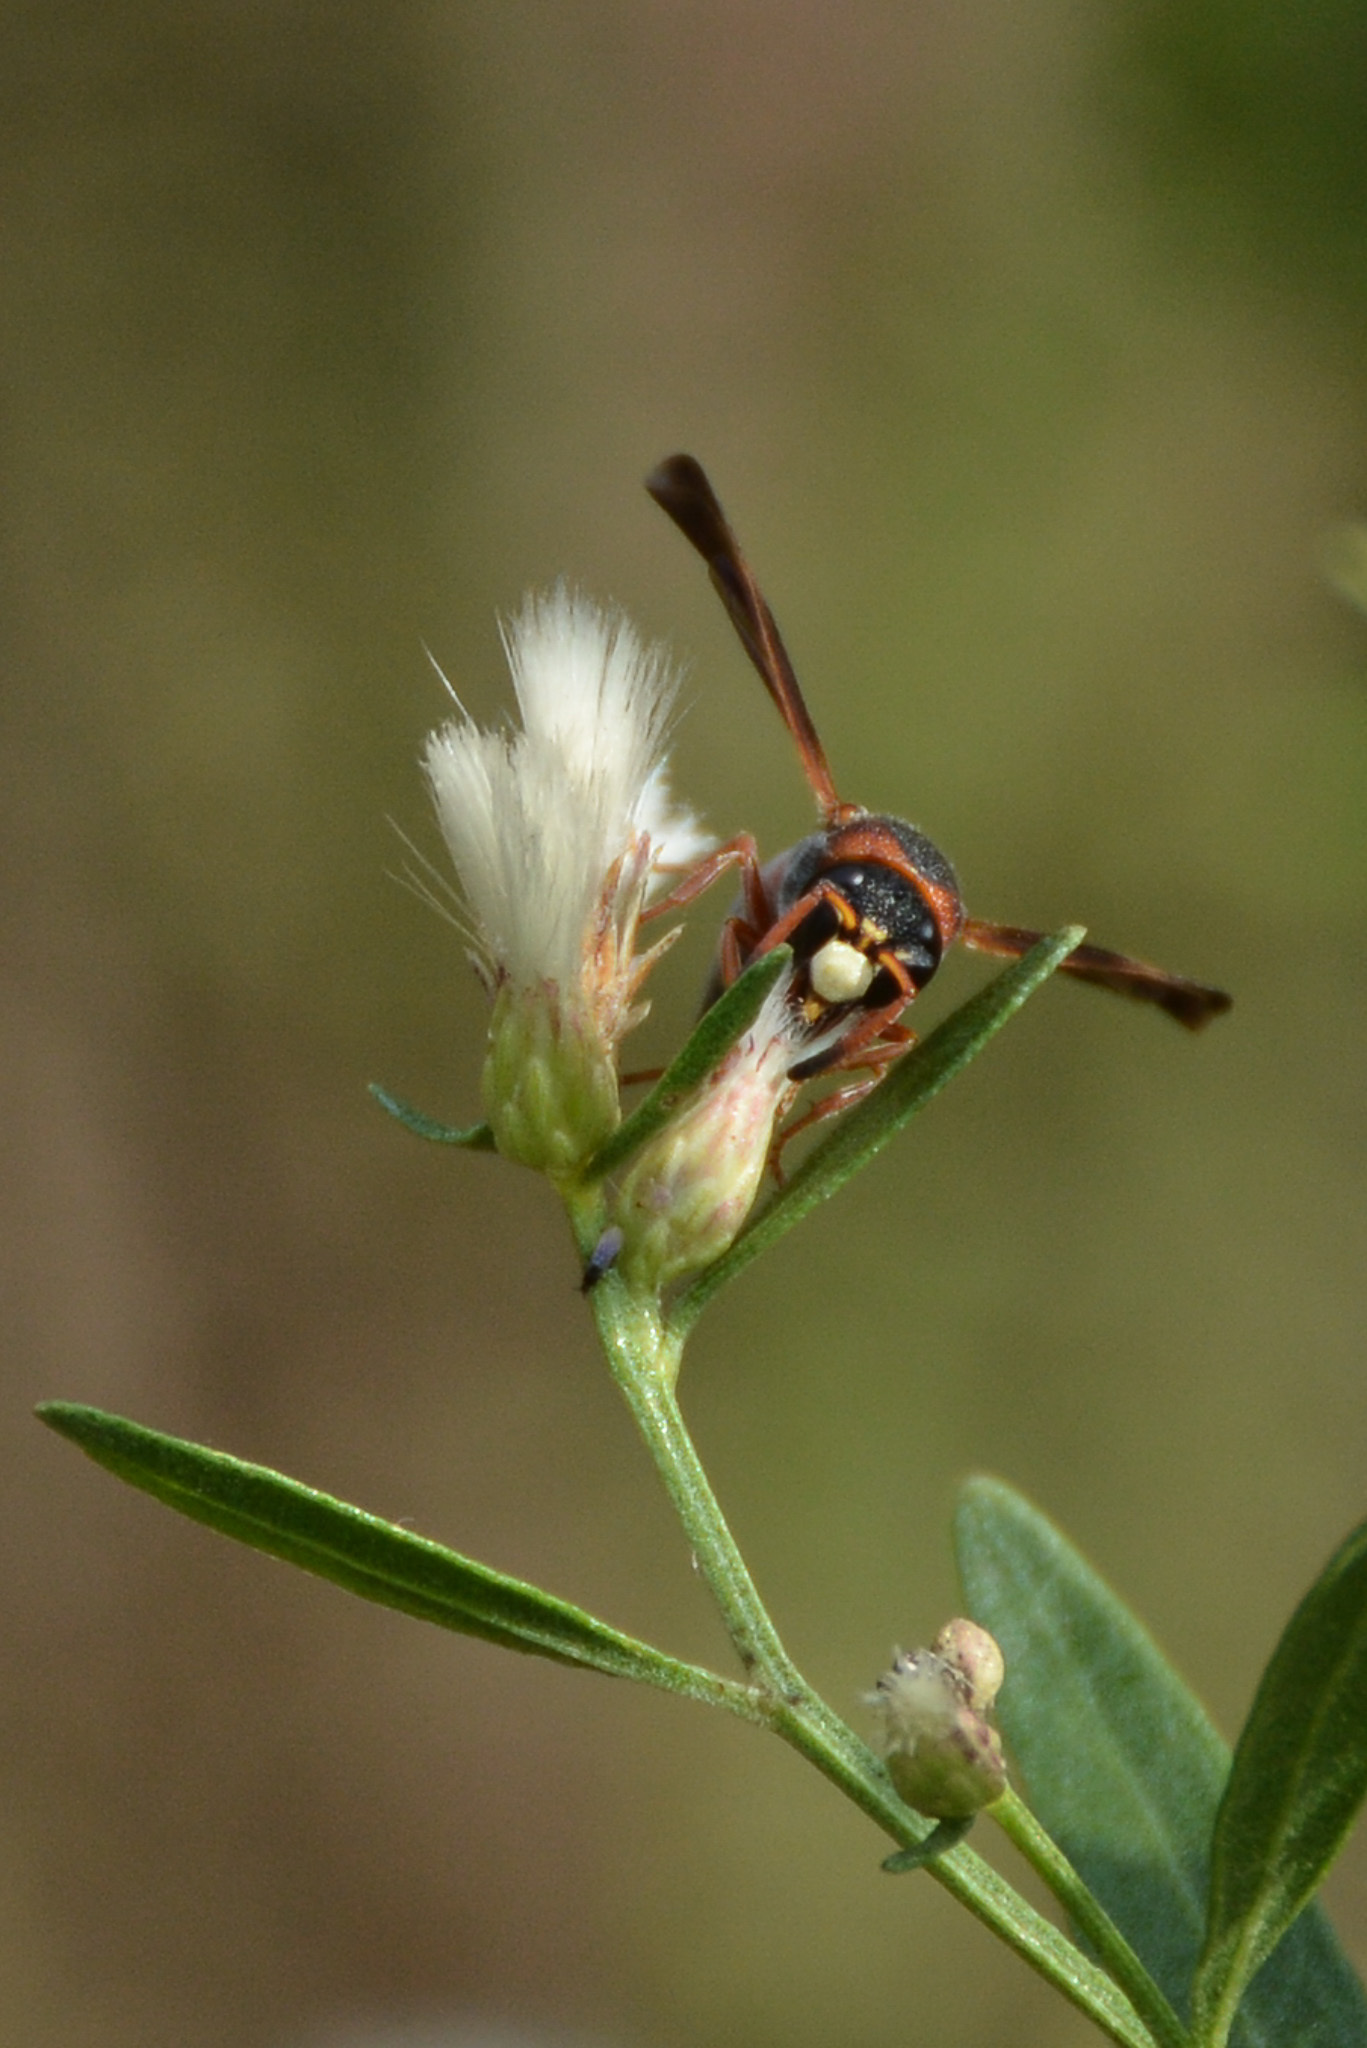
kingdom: Animalia
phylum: Arthropoda
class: Insecta
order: Hymenoptera
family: Eumenidae
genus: Pachodynerus
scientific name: Pachodynerus erynnis
